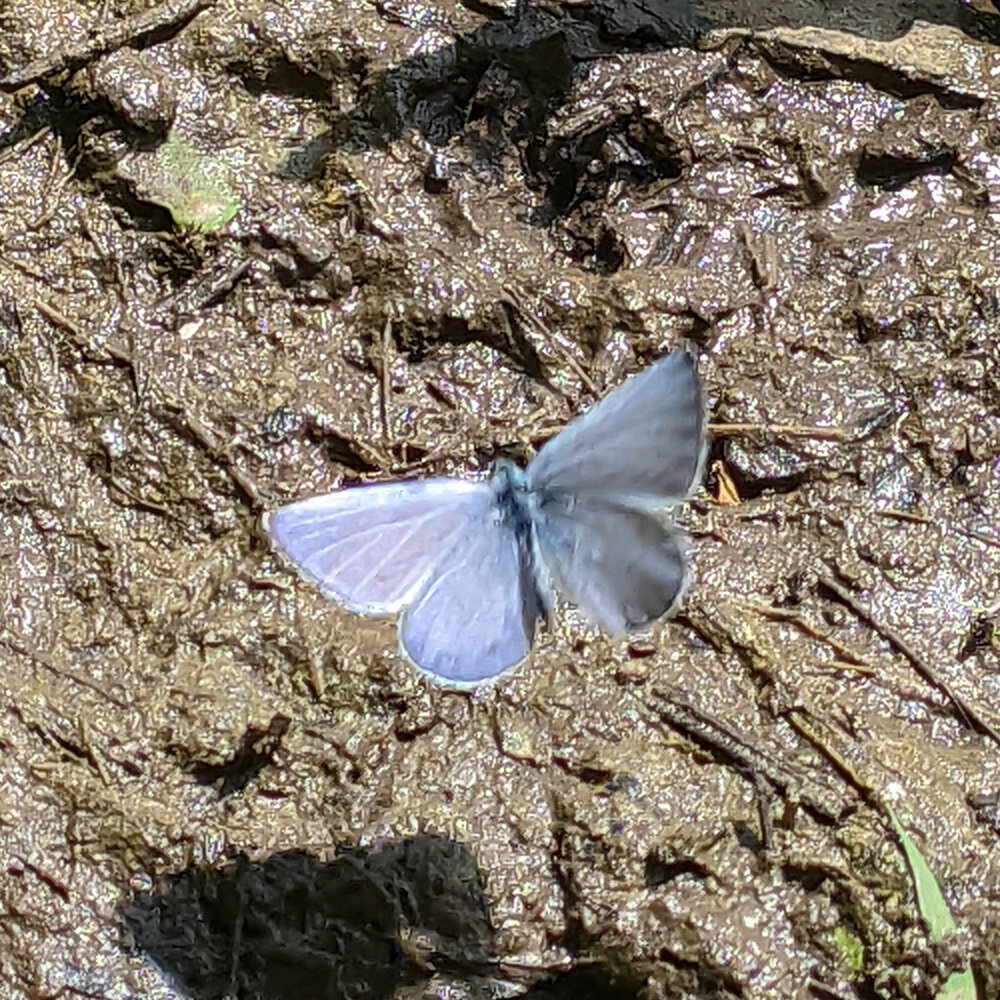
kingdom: Animalia
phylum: Arthropoda
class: Insecta
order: Lepidoptera
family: Lycaenidae
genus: Celastrina
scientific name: Celastrina argiolus
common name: Holly blue
